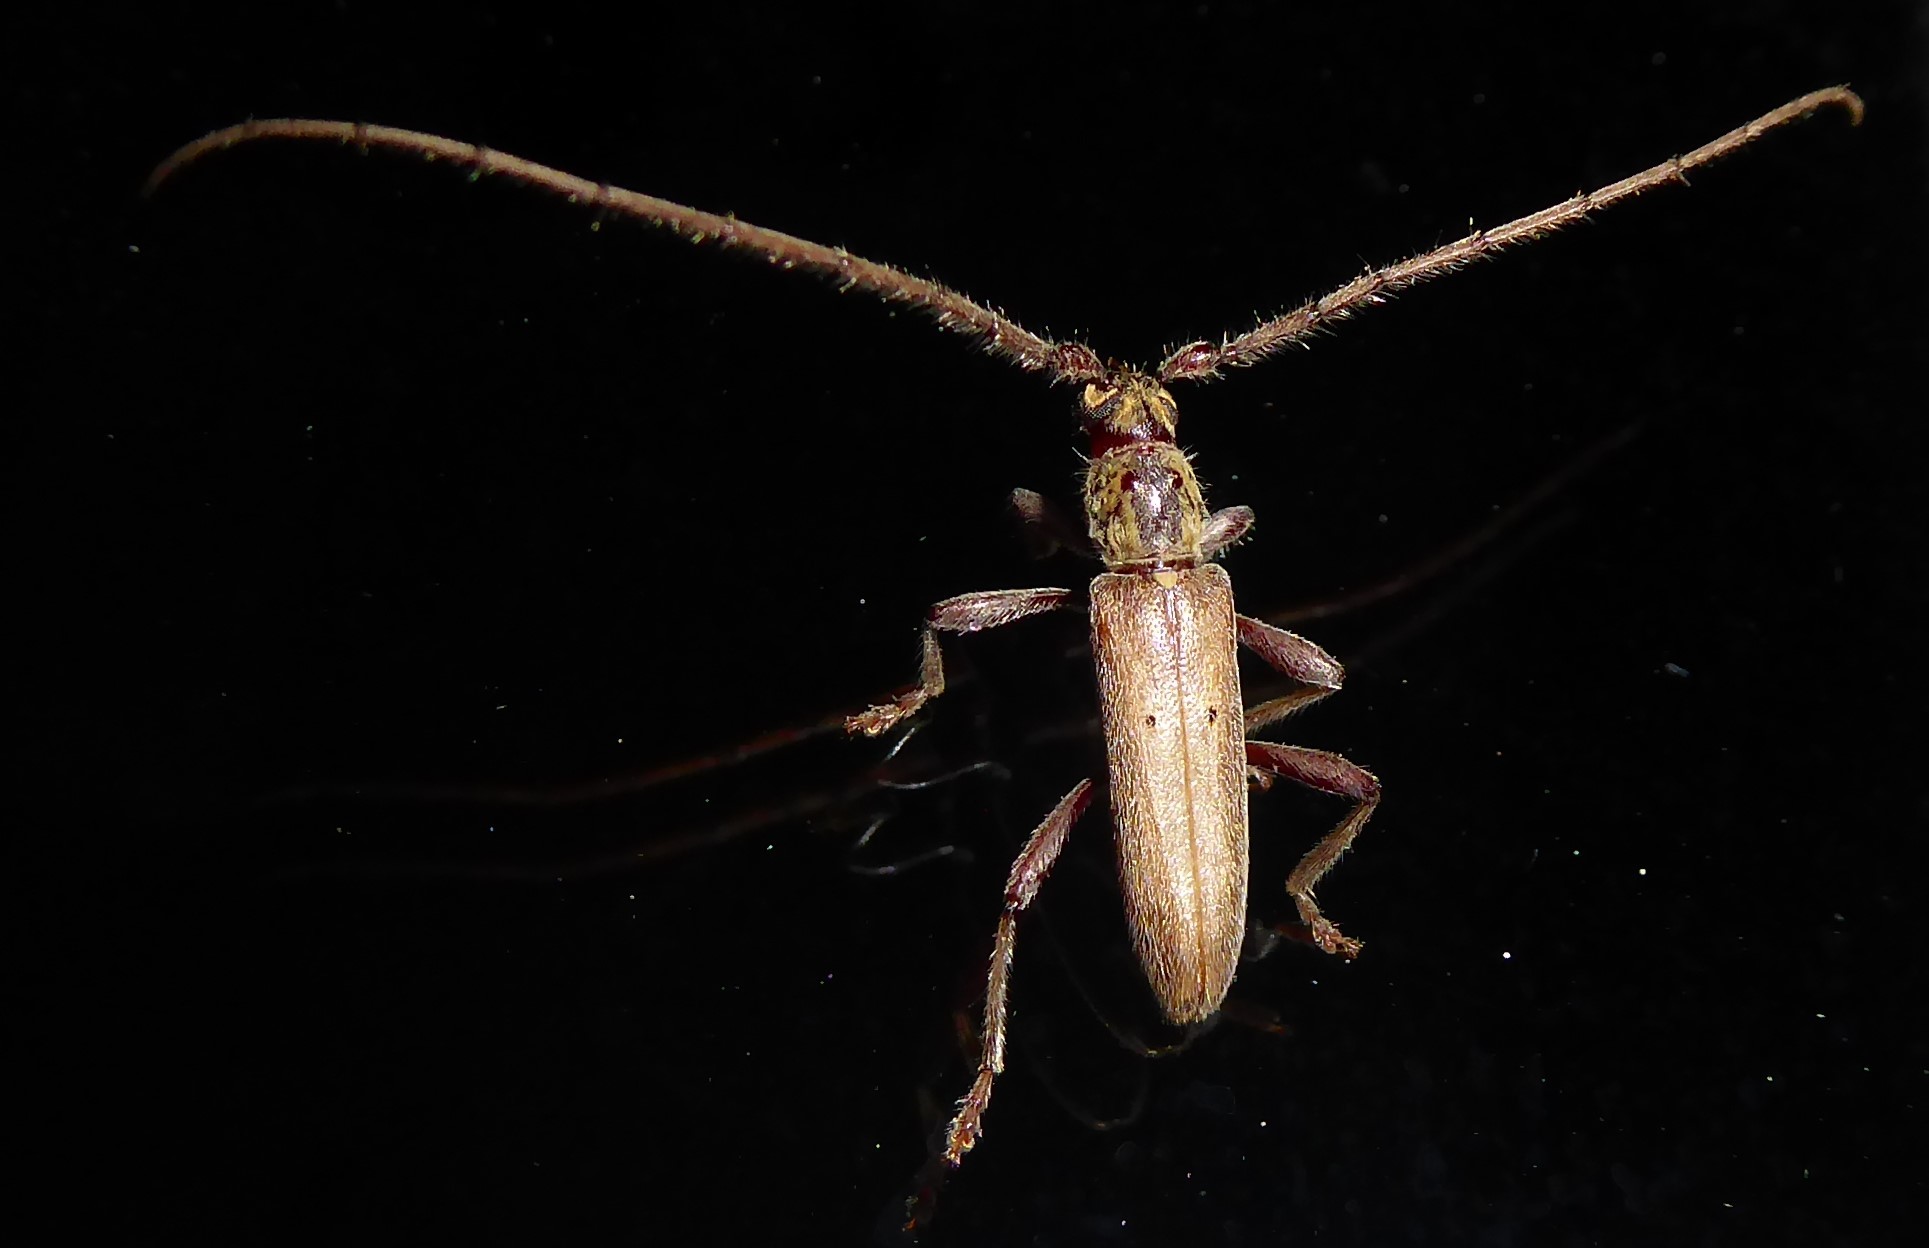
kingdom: Animalia
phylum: Arthropoda
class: Insecta
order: Coleoptera
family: Cerambycidae
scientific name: Cerambycidae
